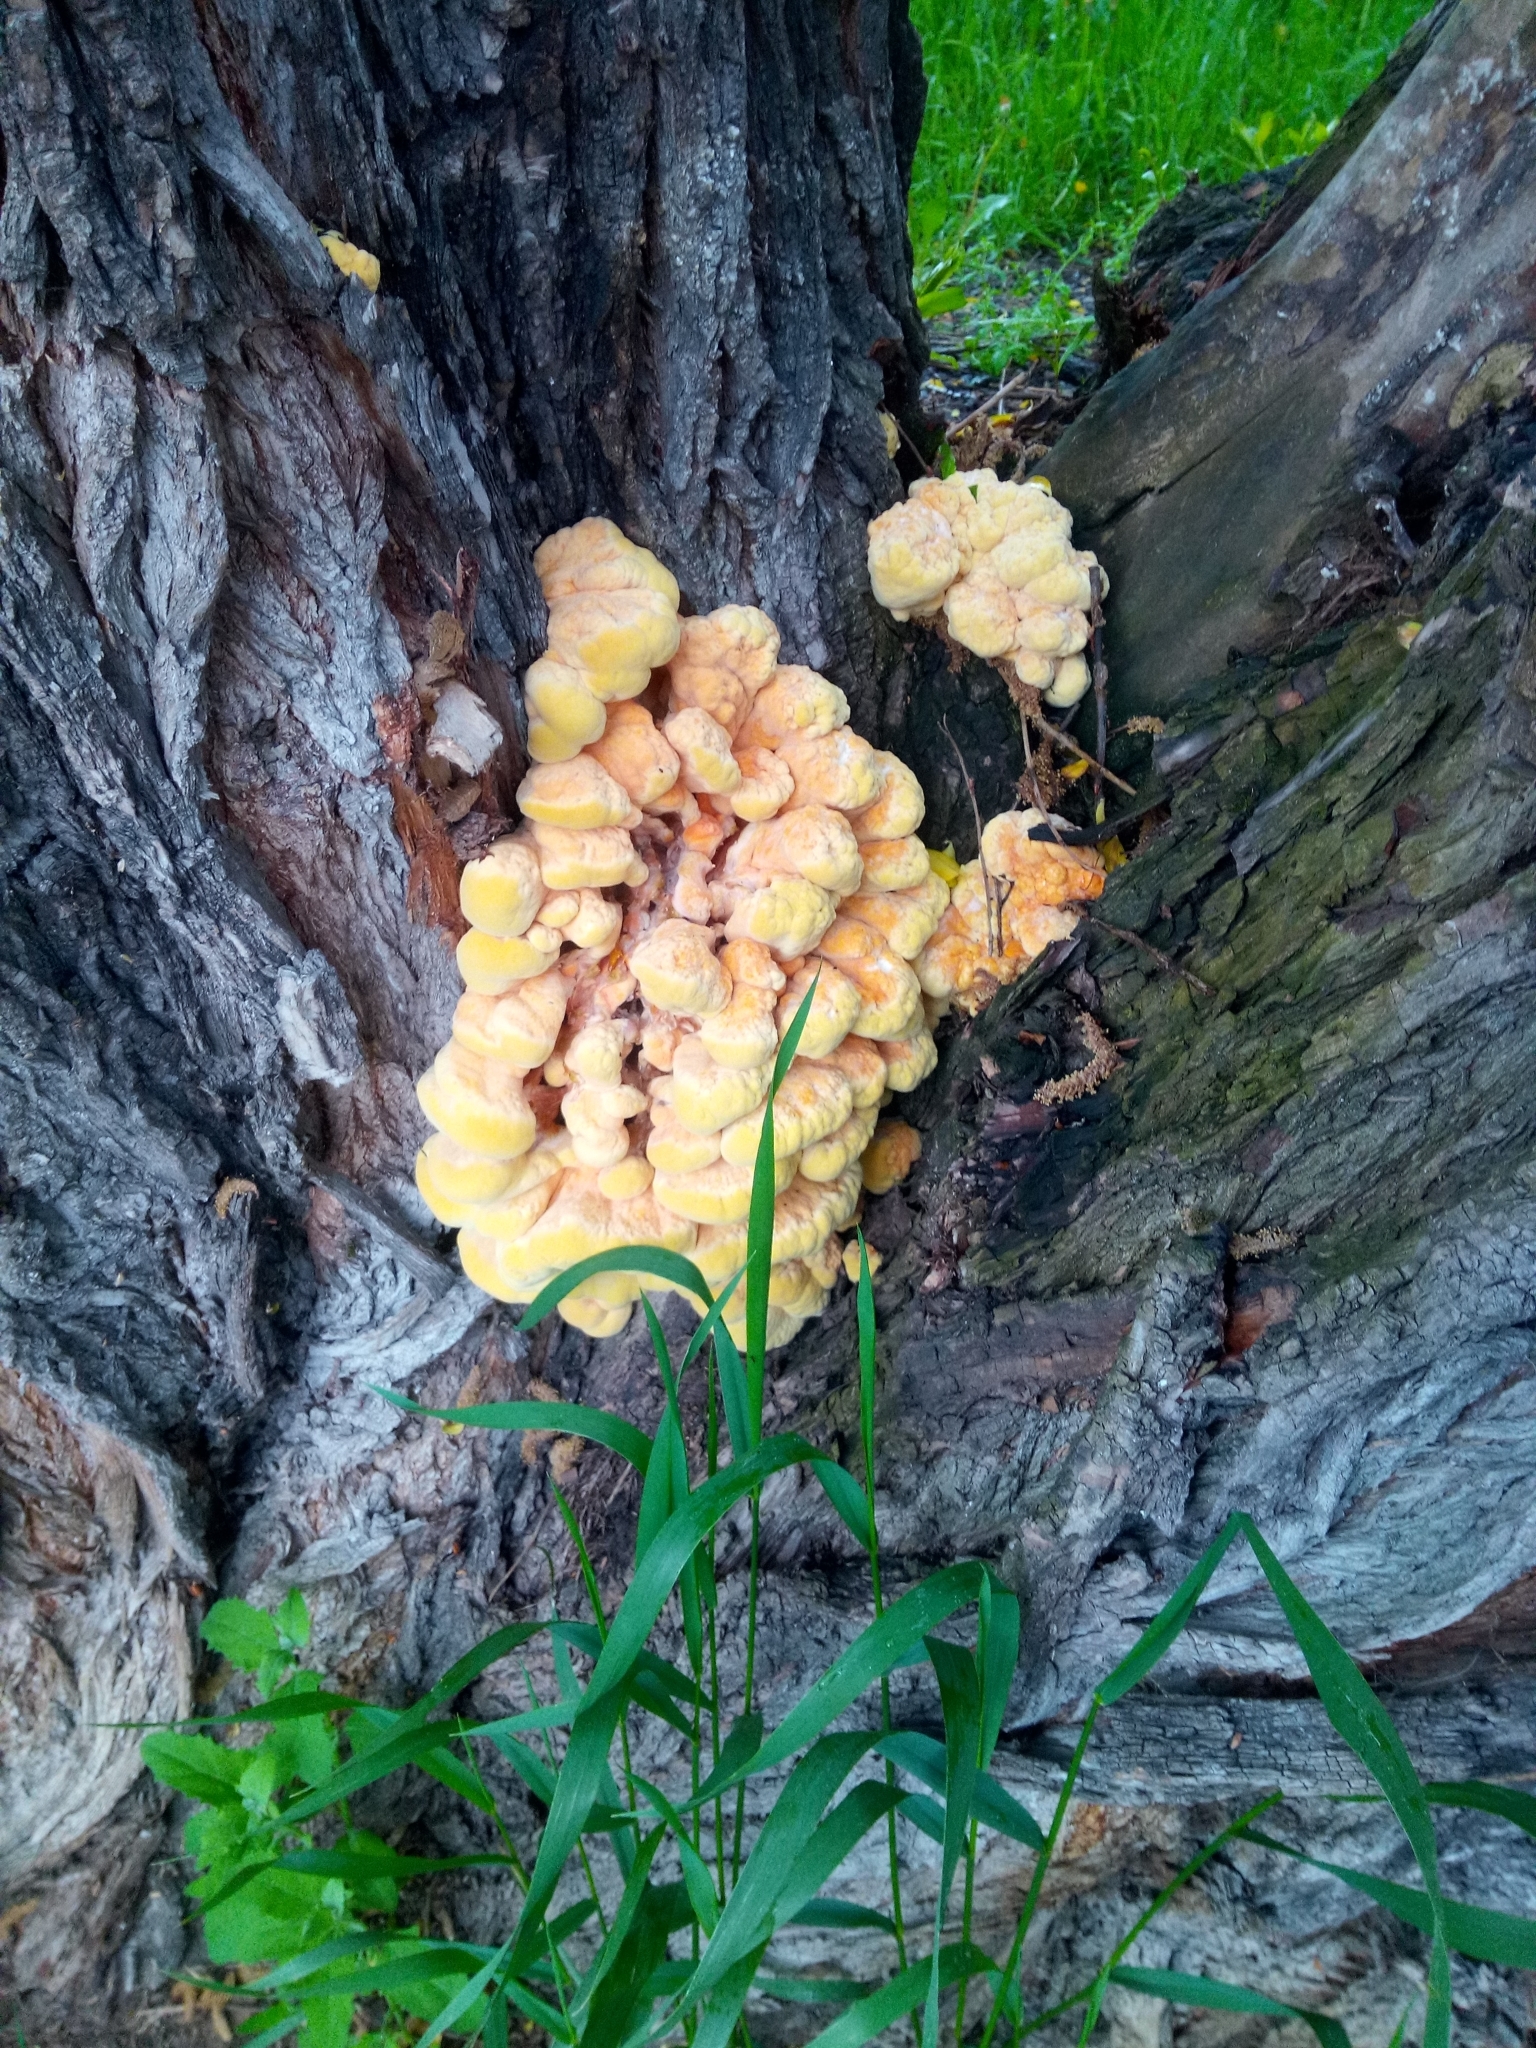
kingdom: Fungi
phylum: Basidiomycota
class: Agaricomycetes
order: Polyporales
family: Laetiporaceae
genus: Laetiporus
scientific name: Laetiporus sulphureus
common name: Chicken of the woods
